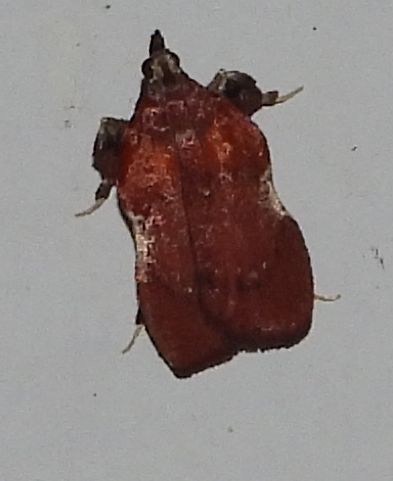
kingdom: Animalia
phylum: Arthropoda
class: Insecta
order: Lepidoptera
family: Pyralidae
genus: Galasa
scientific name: Galasa nigrinodis
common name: Boxwood leaftier moth
